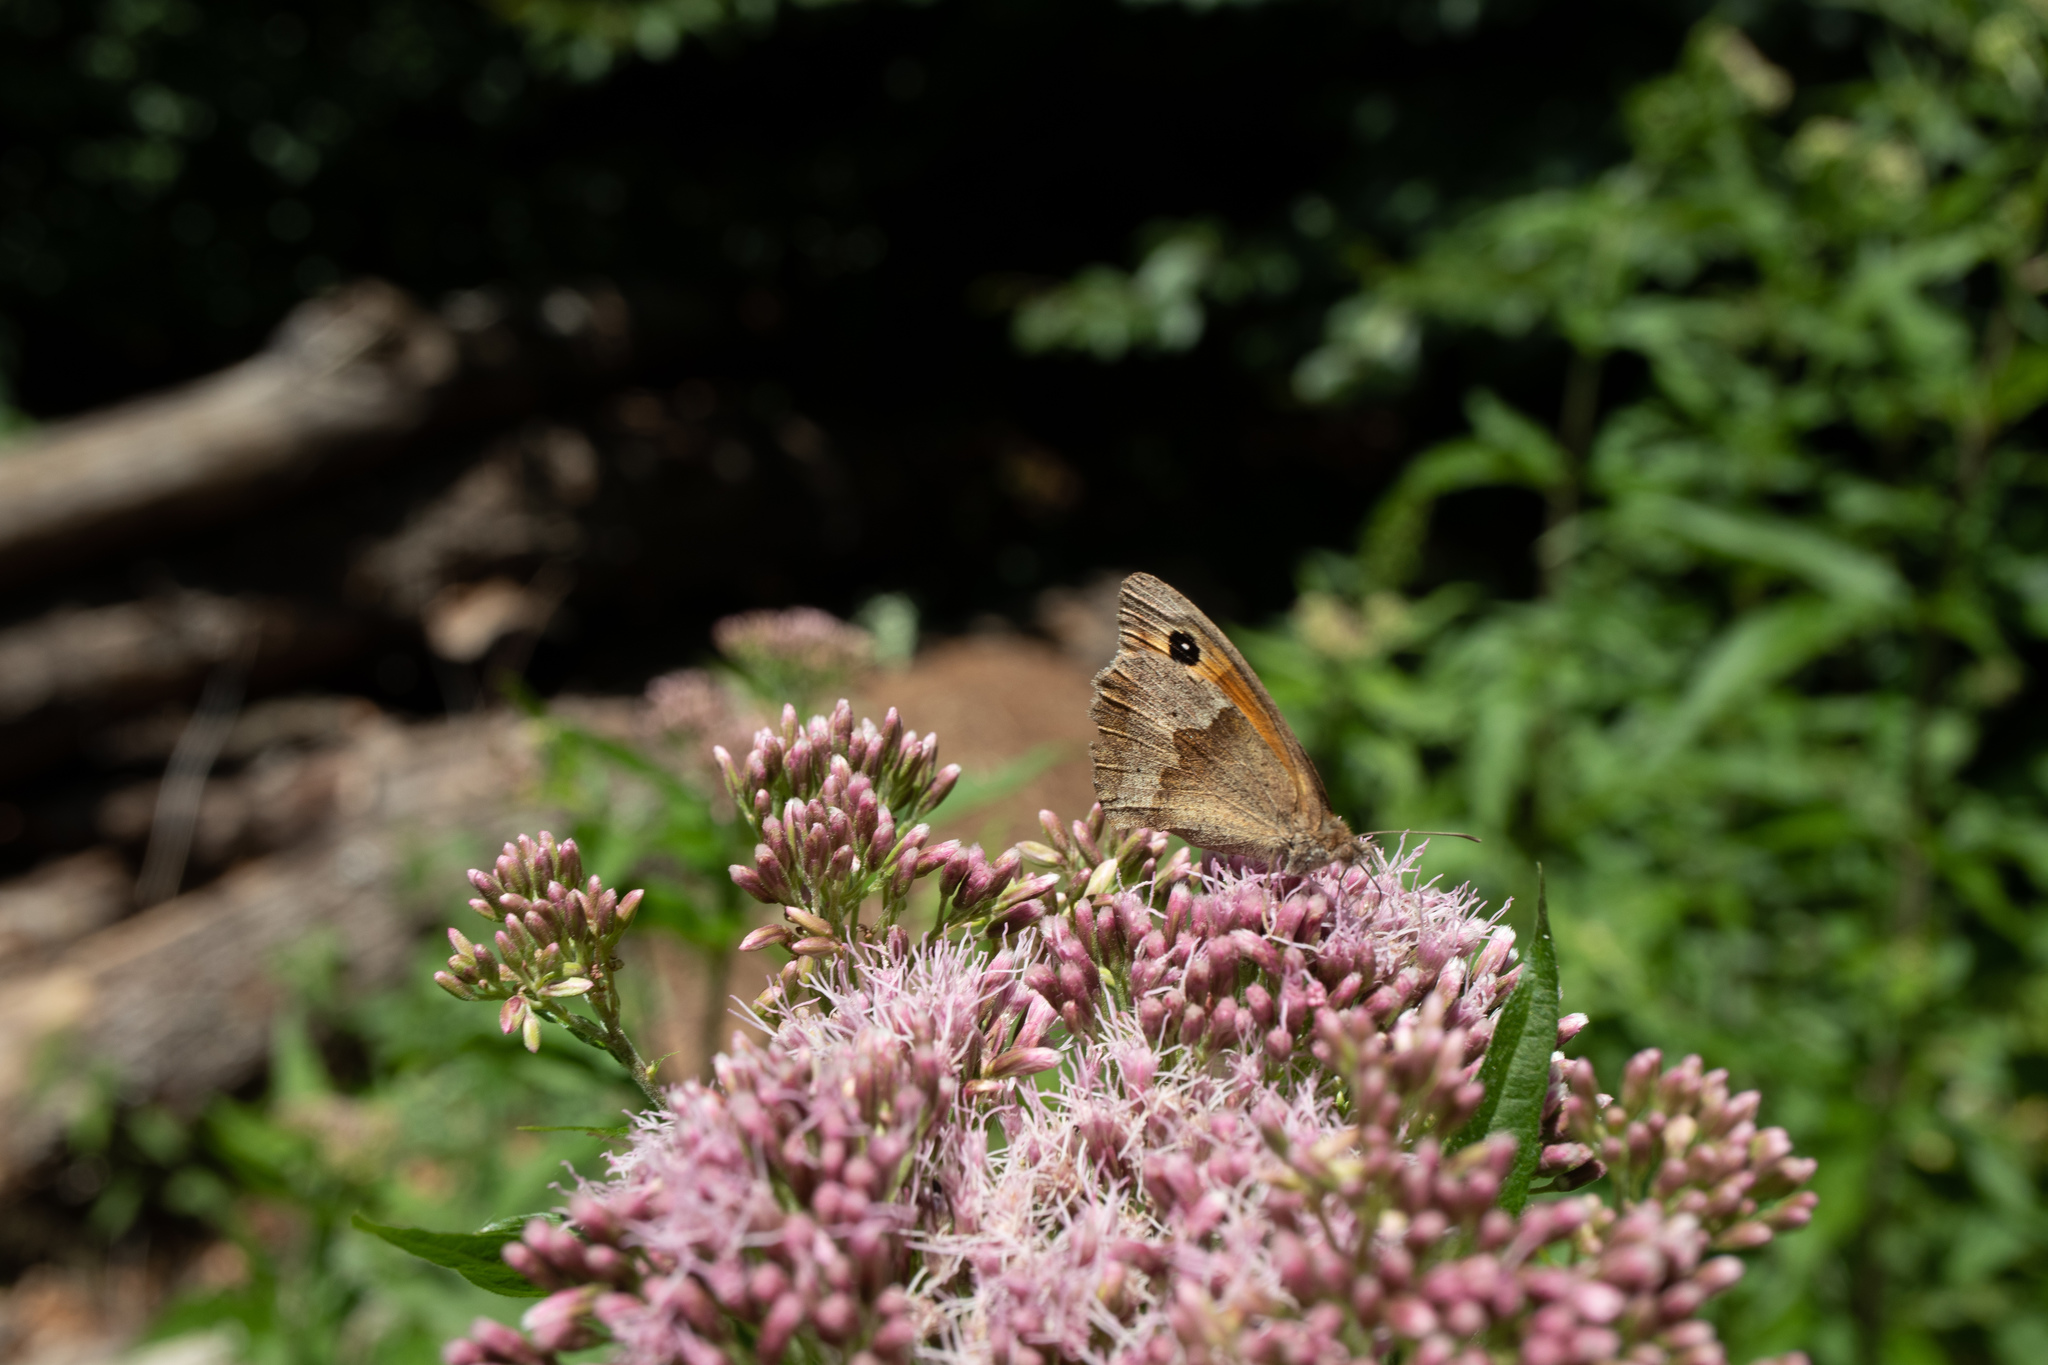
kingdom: Animalia
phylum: Arthropoda
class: Insecta
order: Lepidoptera
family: Nymphalidae
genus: Maniola
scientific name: Maniola jurtina
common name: Meadow brown
